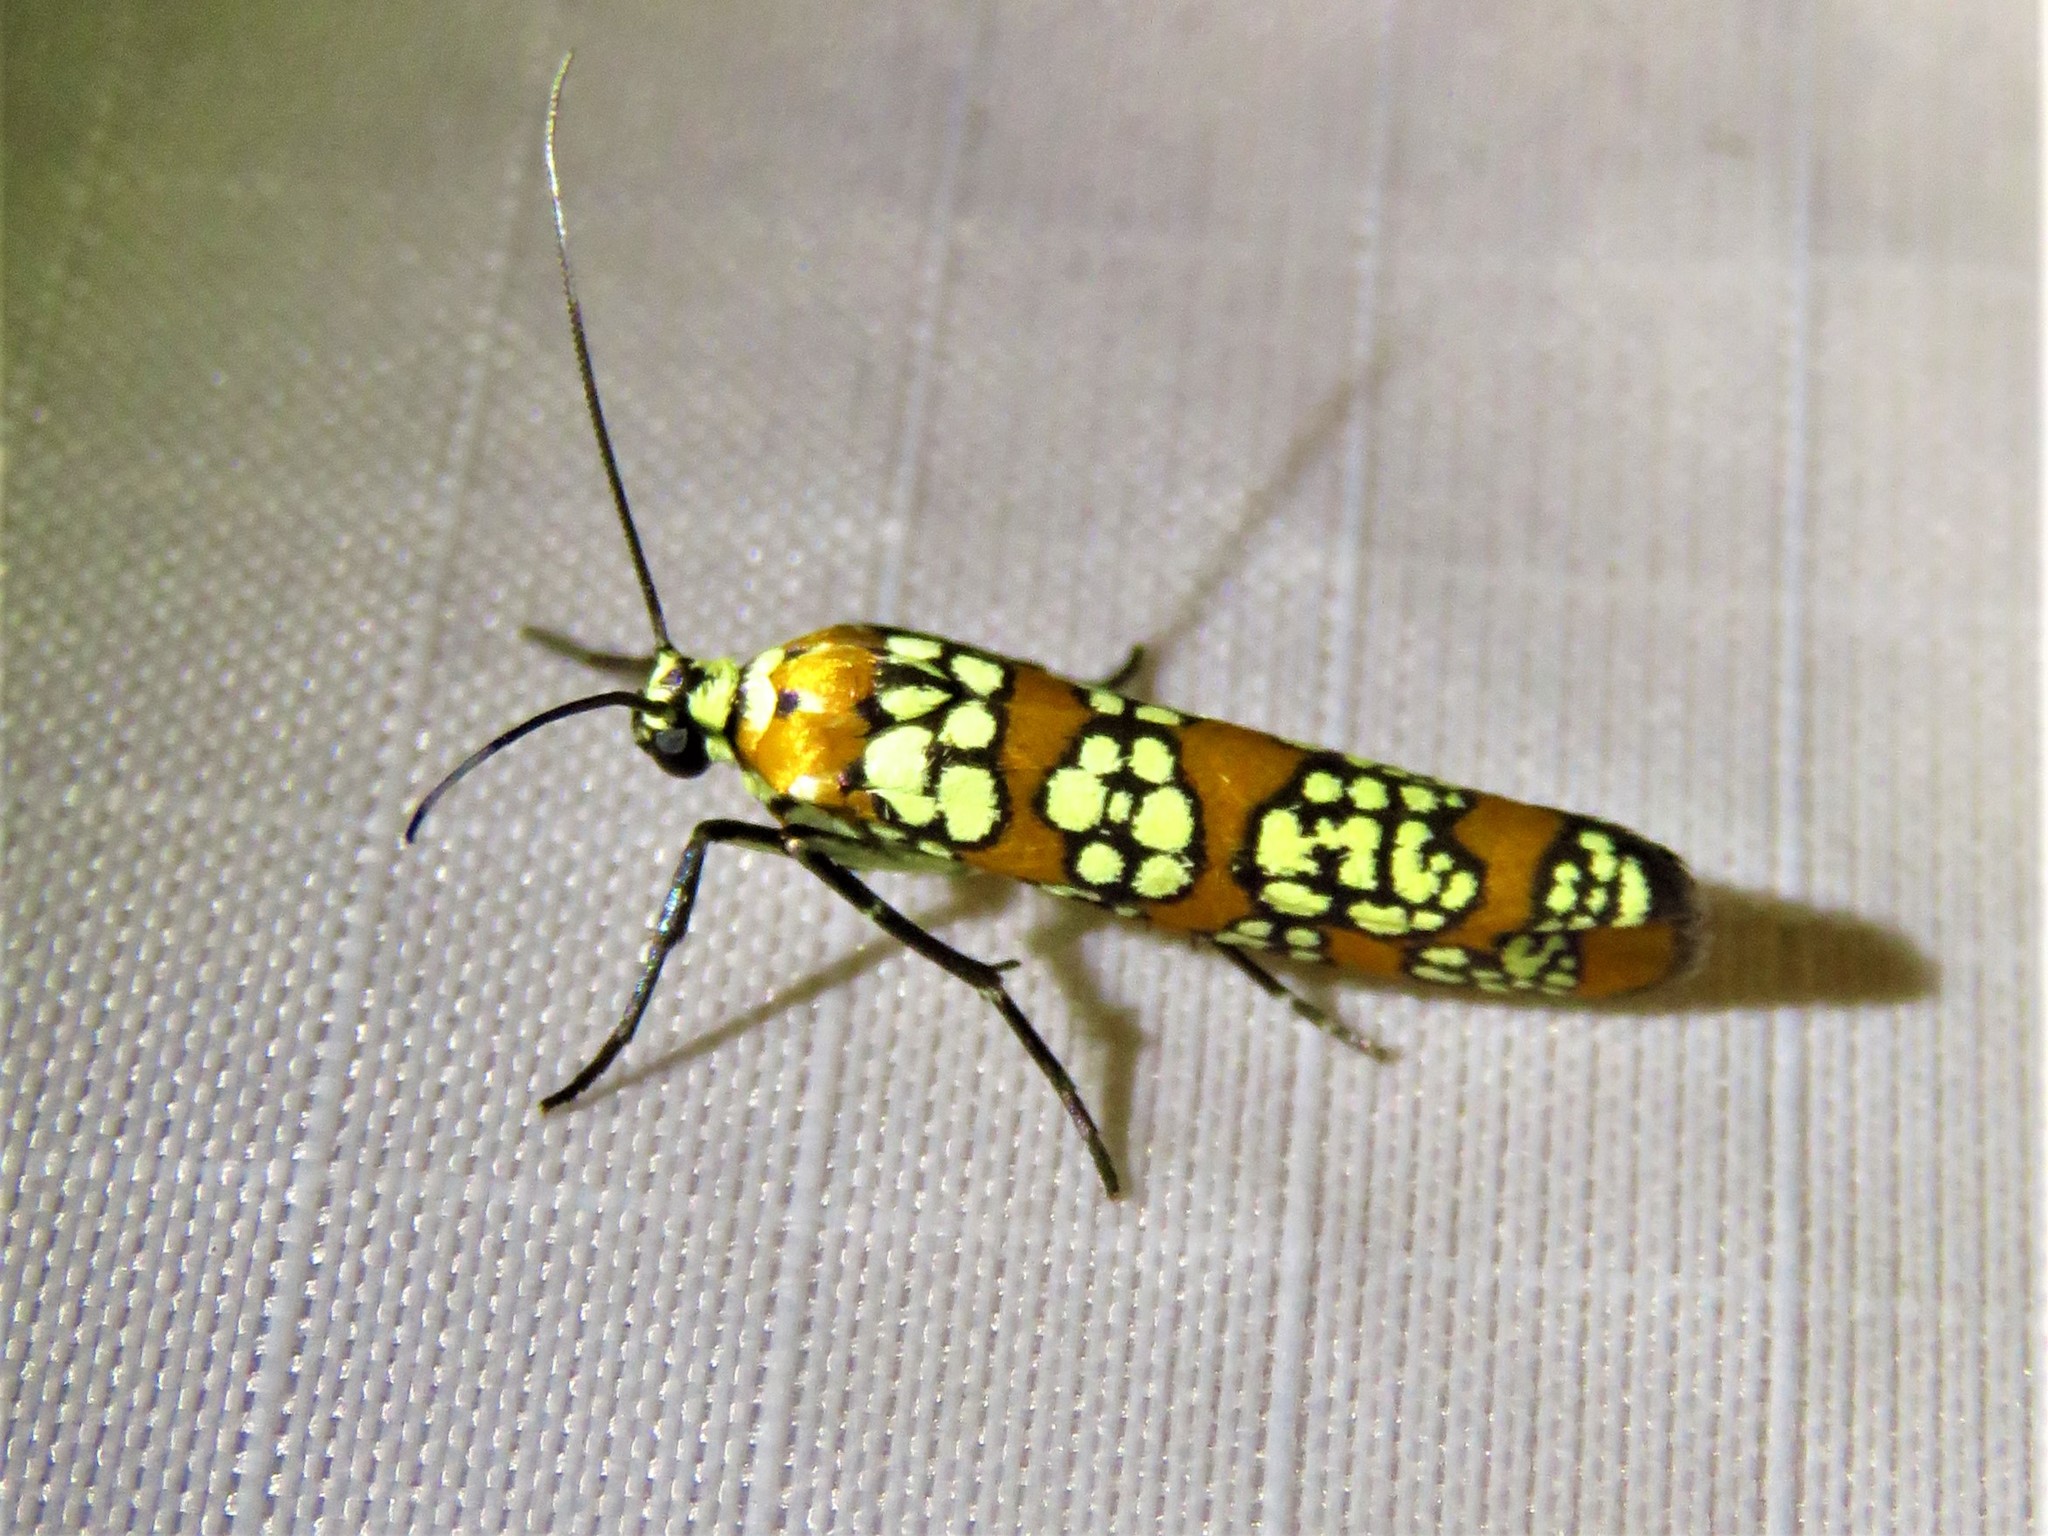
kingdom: Animalia
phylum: Arthropoda
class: Insecta
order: Lepidoptera
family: Attevidae
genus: Atteva
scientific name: Atteva punctella
